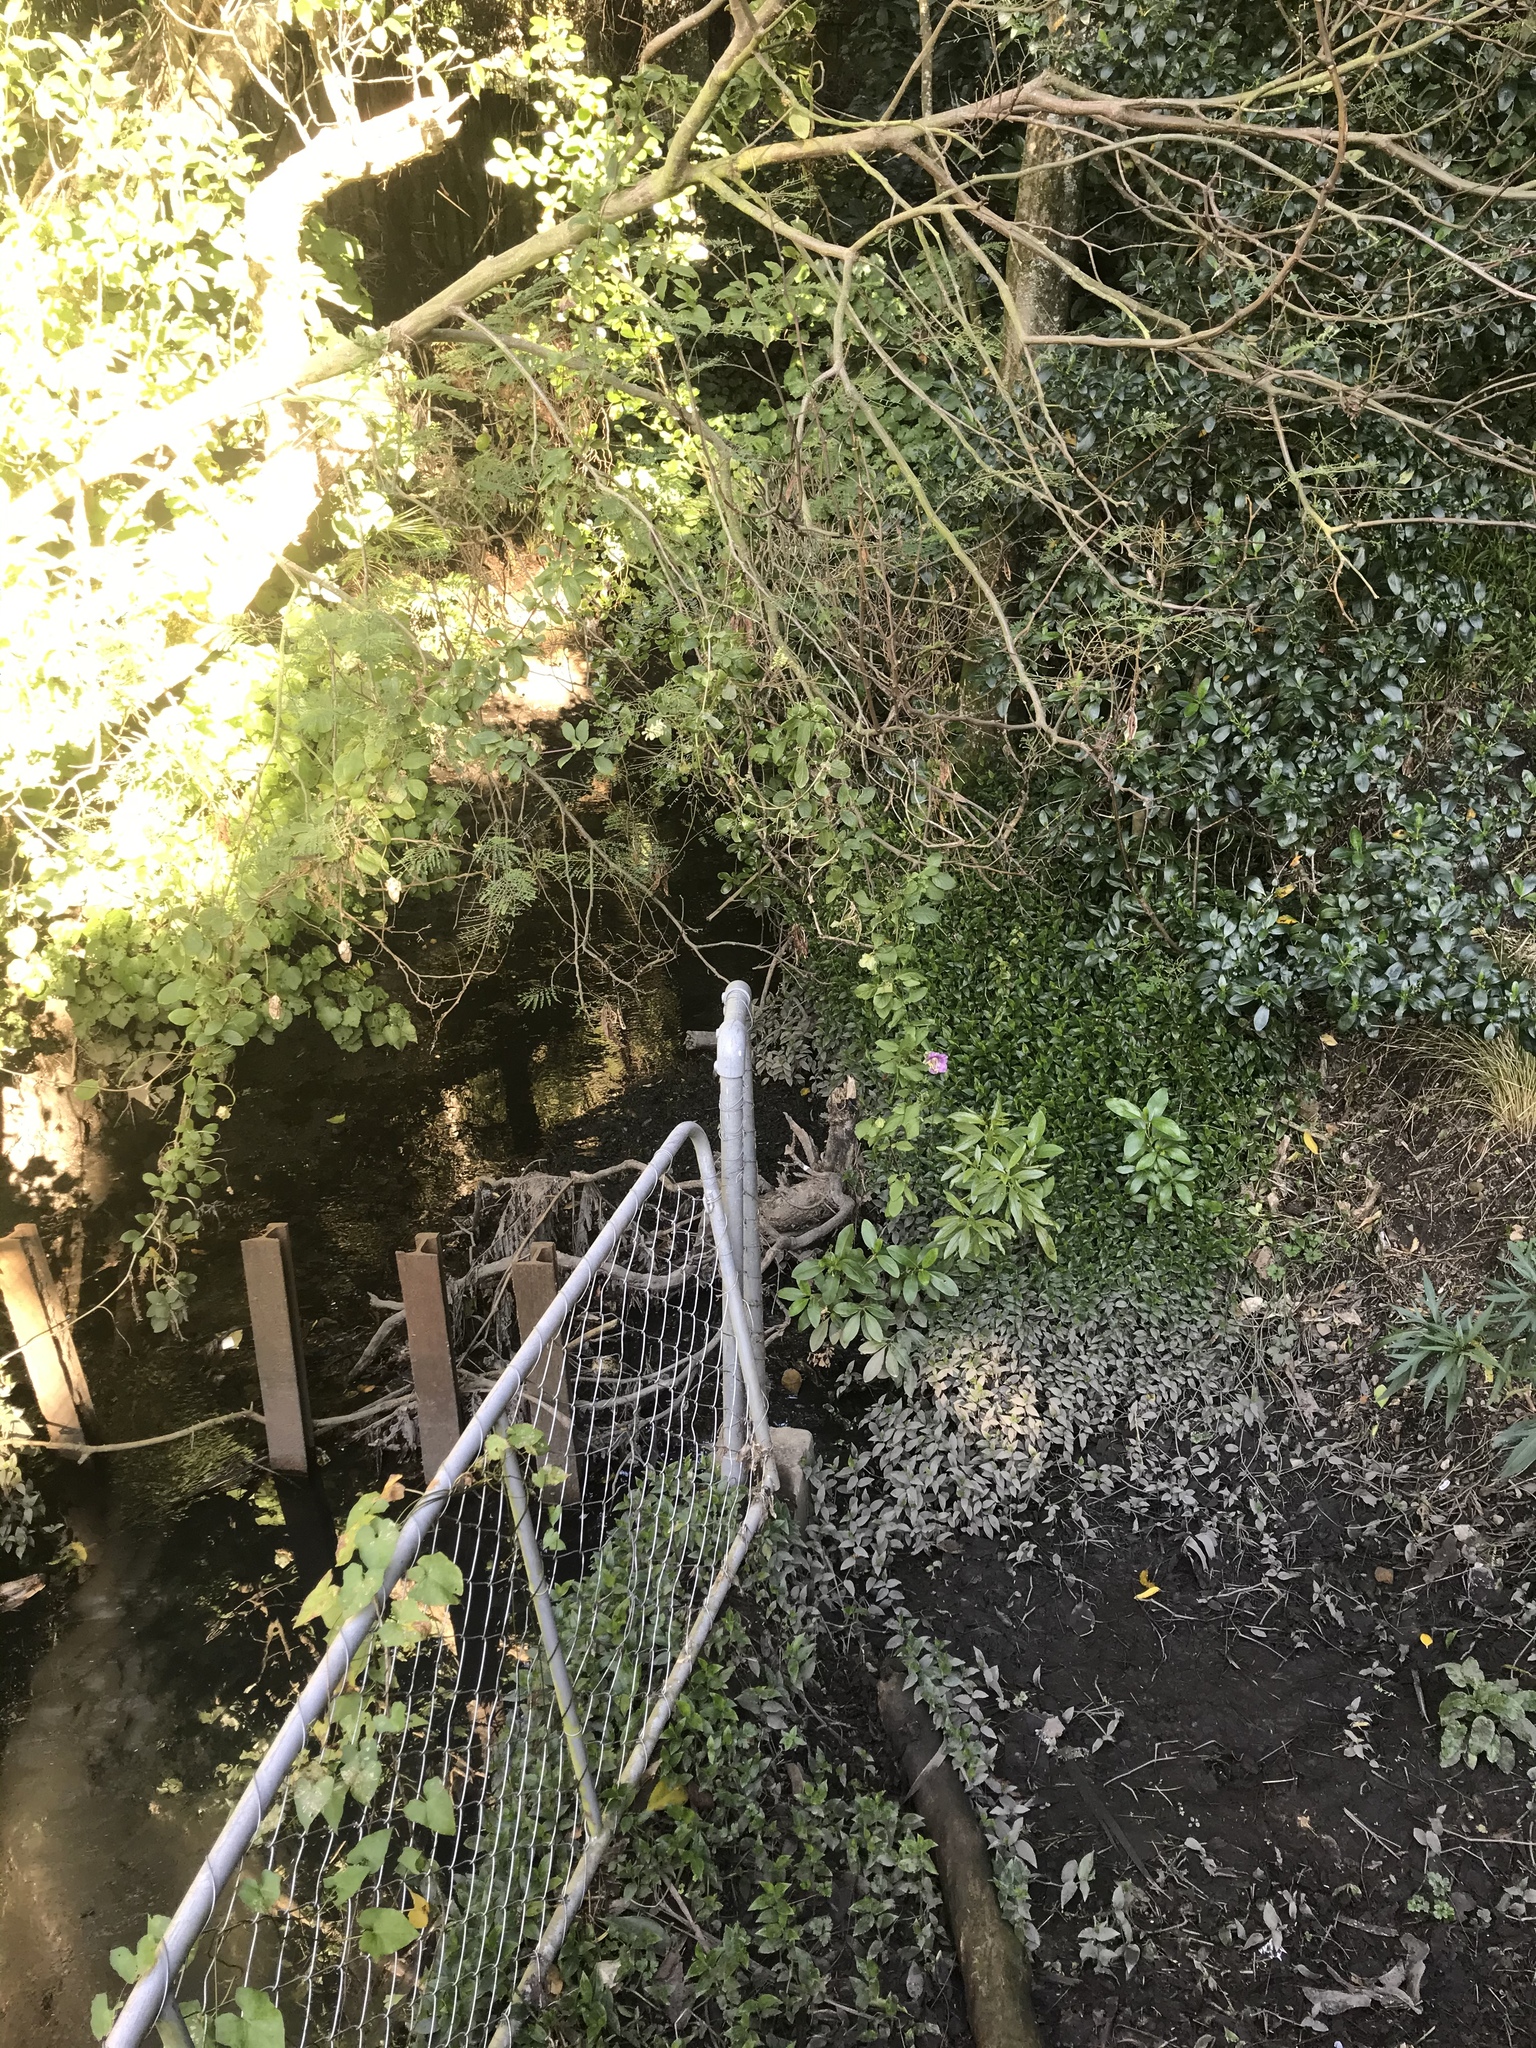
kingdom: Plantae
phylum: Tracheophyta
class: Magnoliopsida
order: Ericales
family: Polemoniaceae
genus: Cobaea
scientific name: Cobaea scandens
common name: Cup-and-saucer-vine
